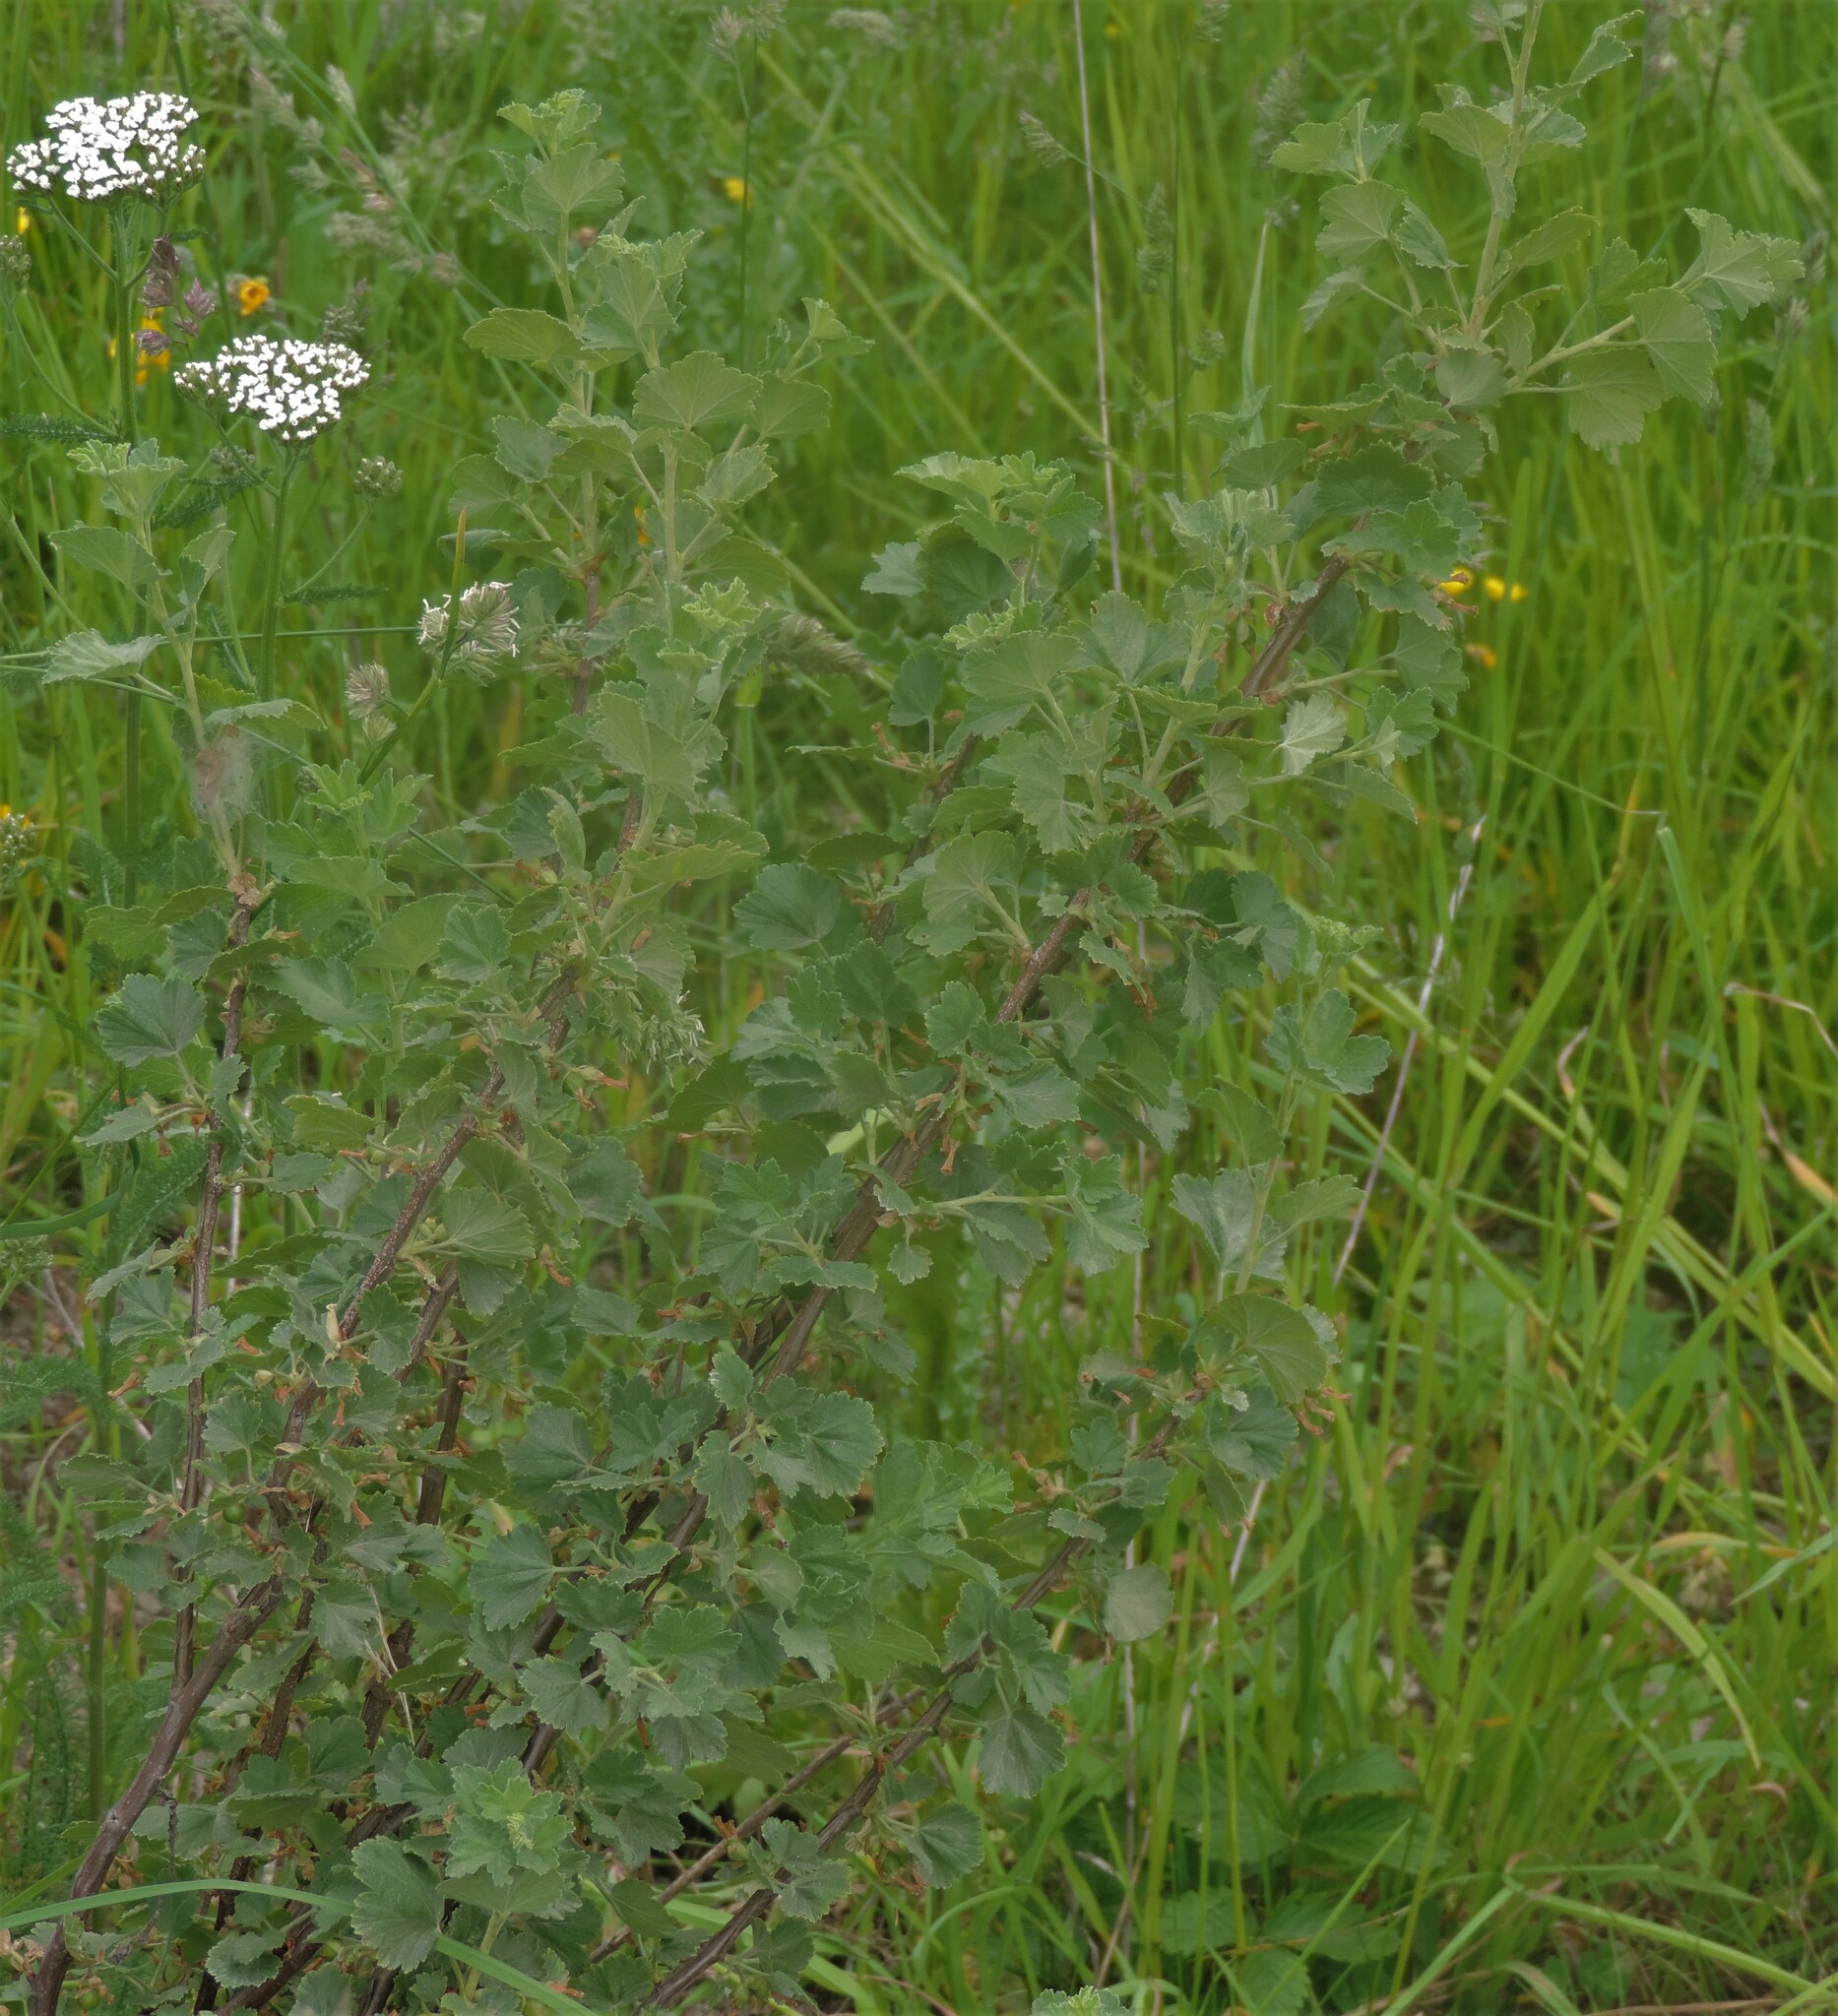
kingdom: Plantae
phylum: Tracheophyta
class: Magnoliopsida
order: Saxifragales
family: Grossulariaceae
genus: Ribes
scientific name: Ribes cereum
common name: Wax currant
